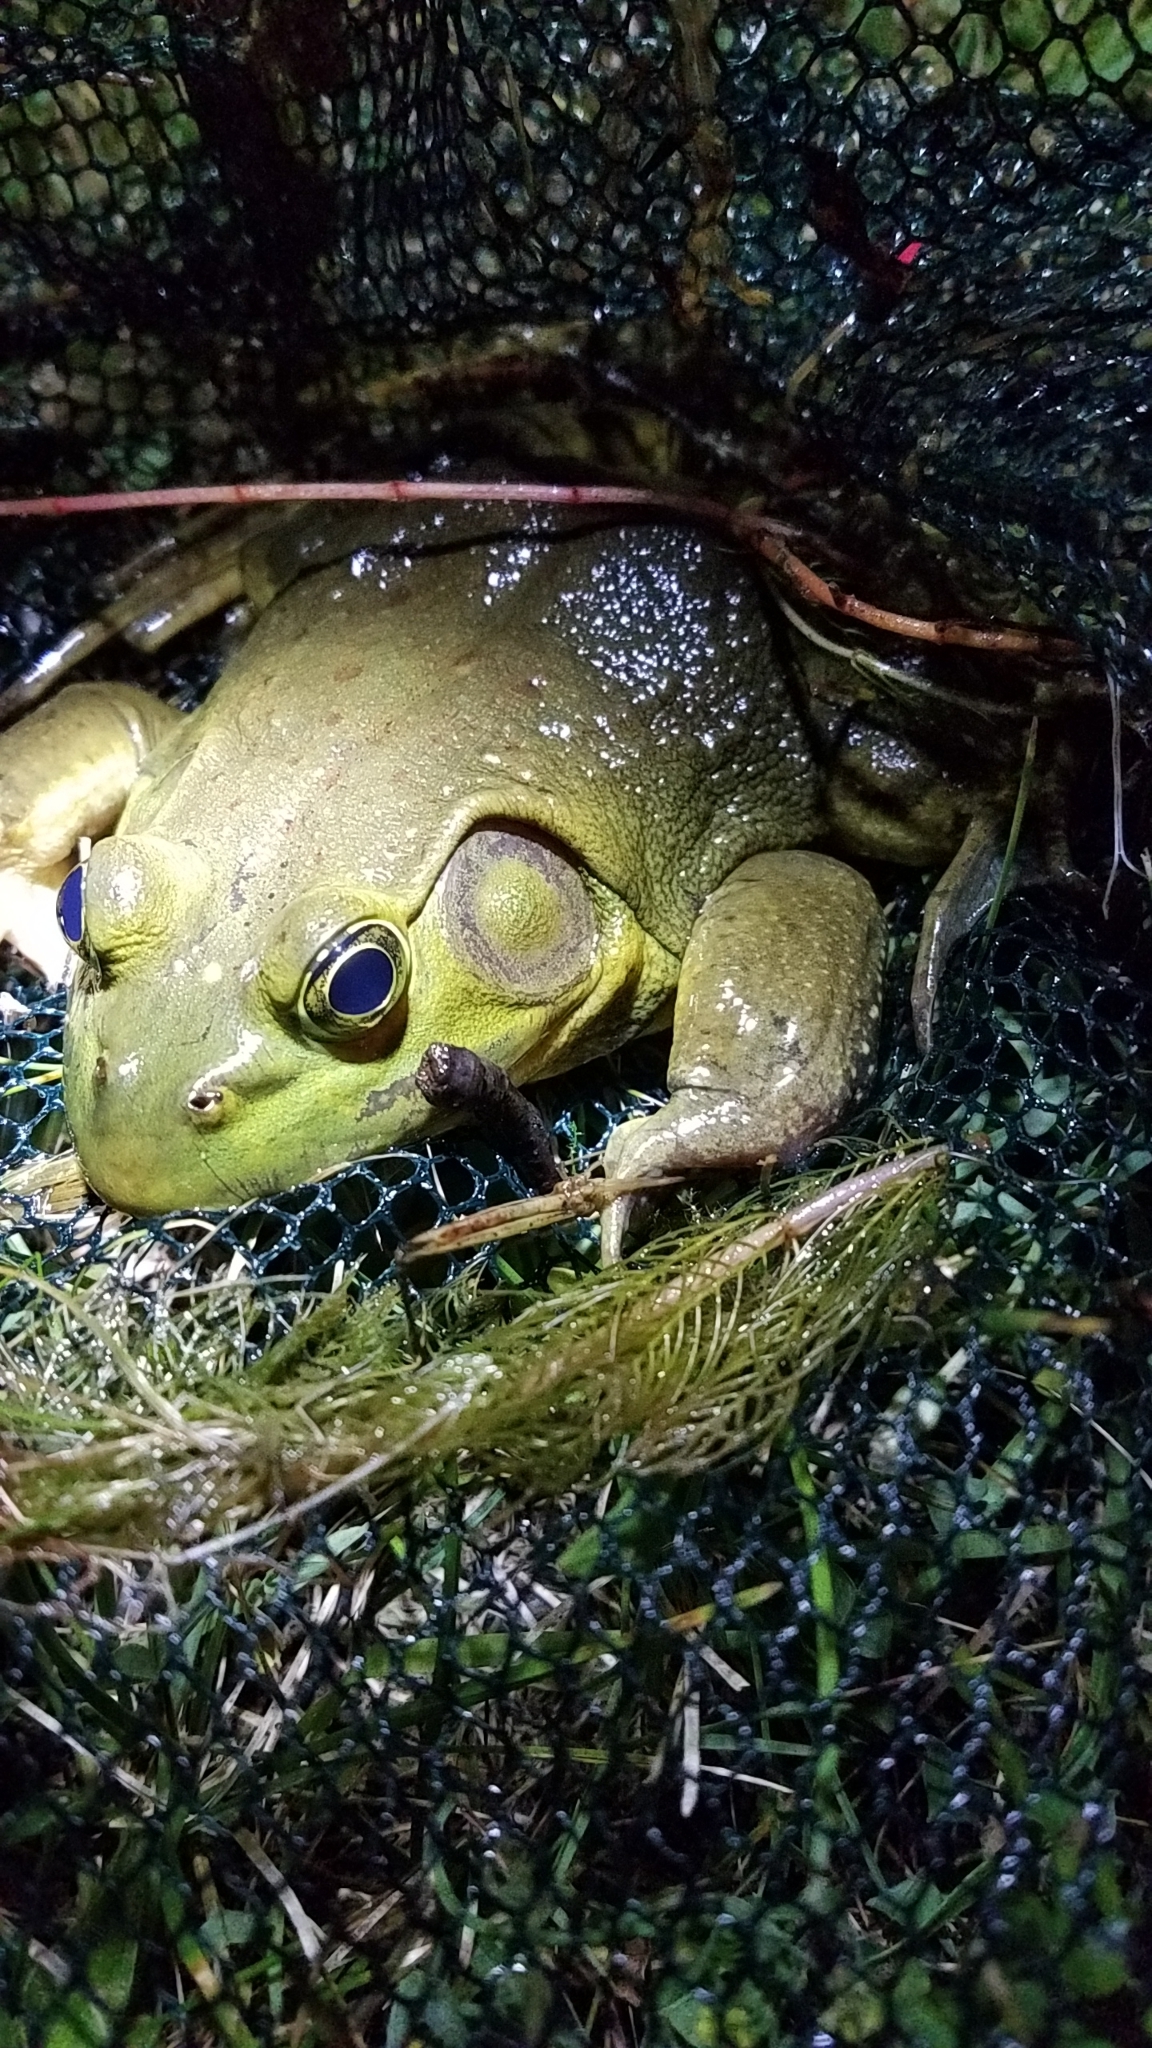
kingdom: Animalia
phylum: Chordata
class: Amphibia
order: Anura
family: Ranidae
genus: Lithobates
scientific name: Lithobates catesbeianus
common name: American bullfrog
